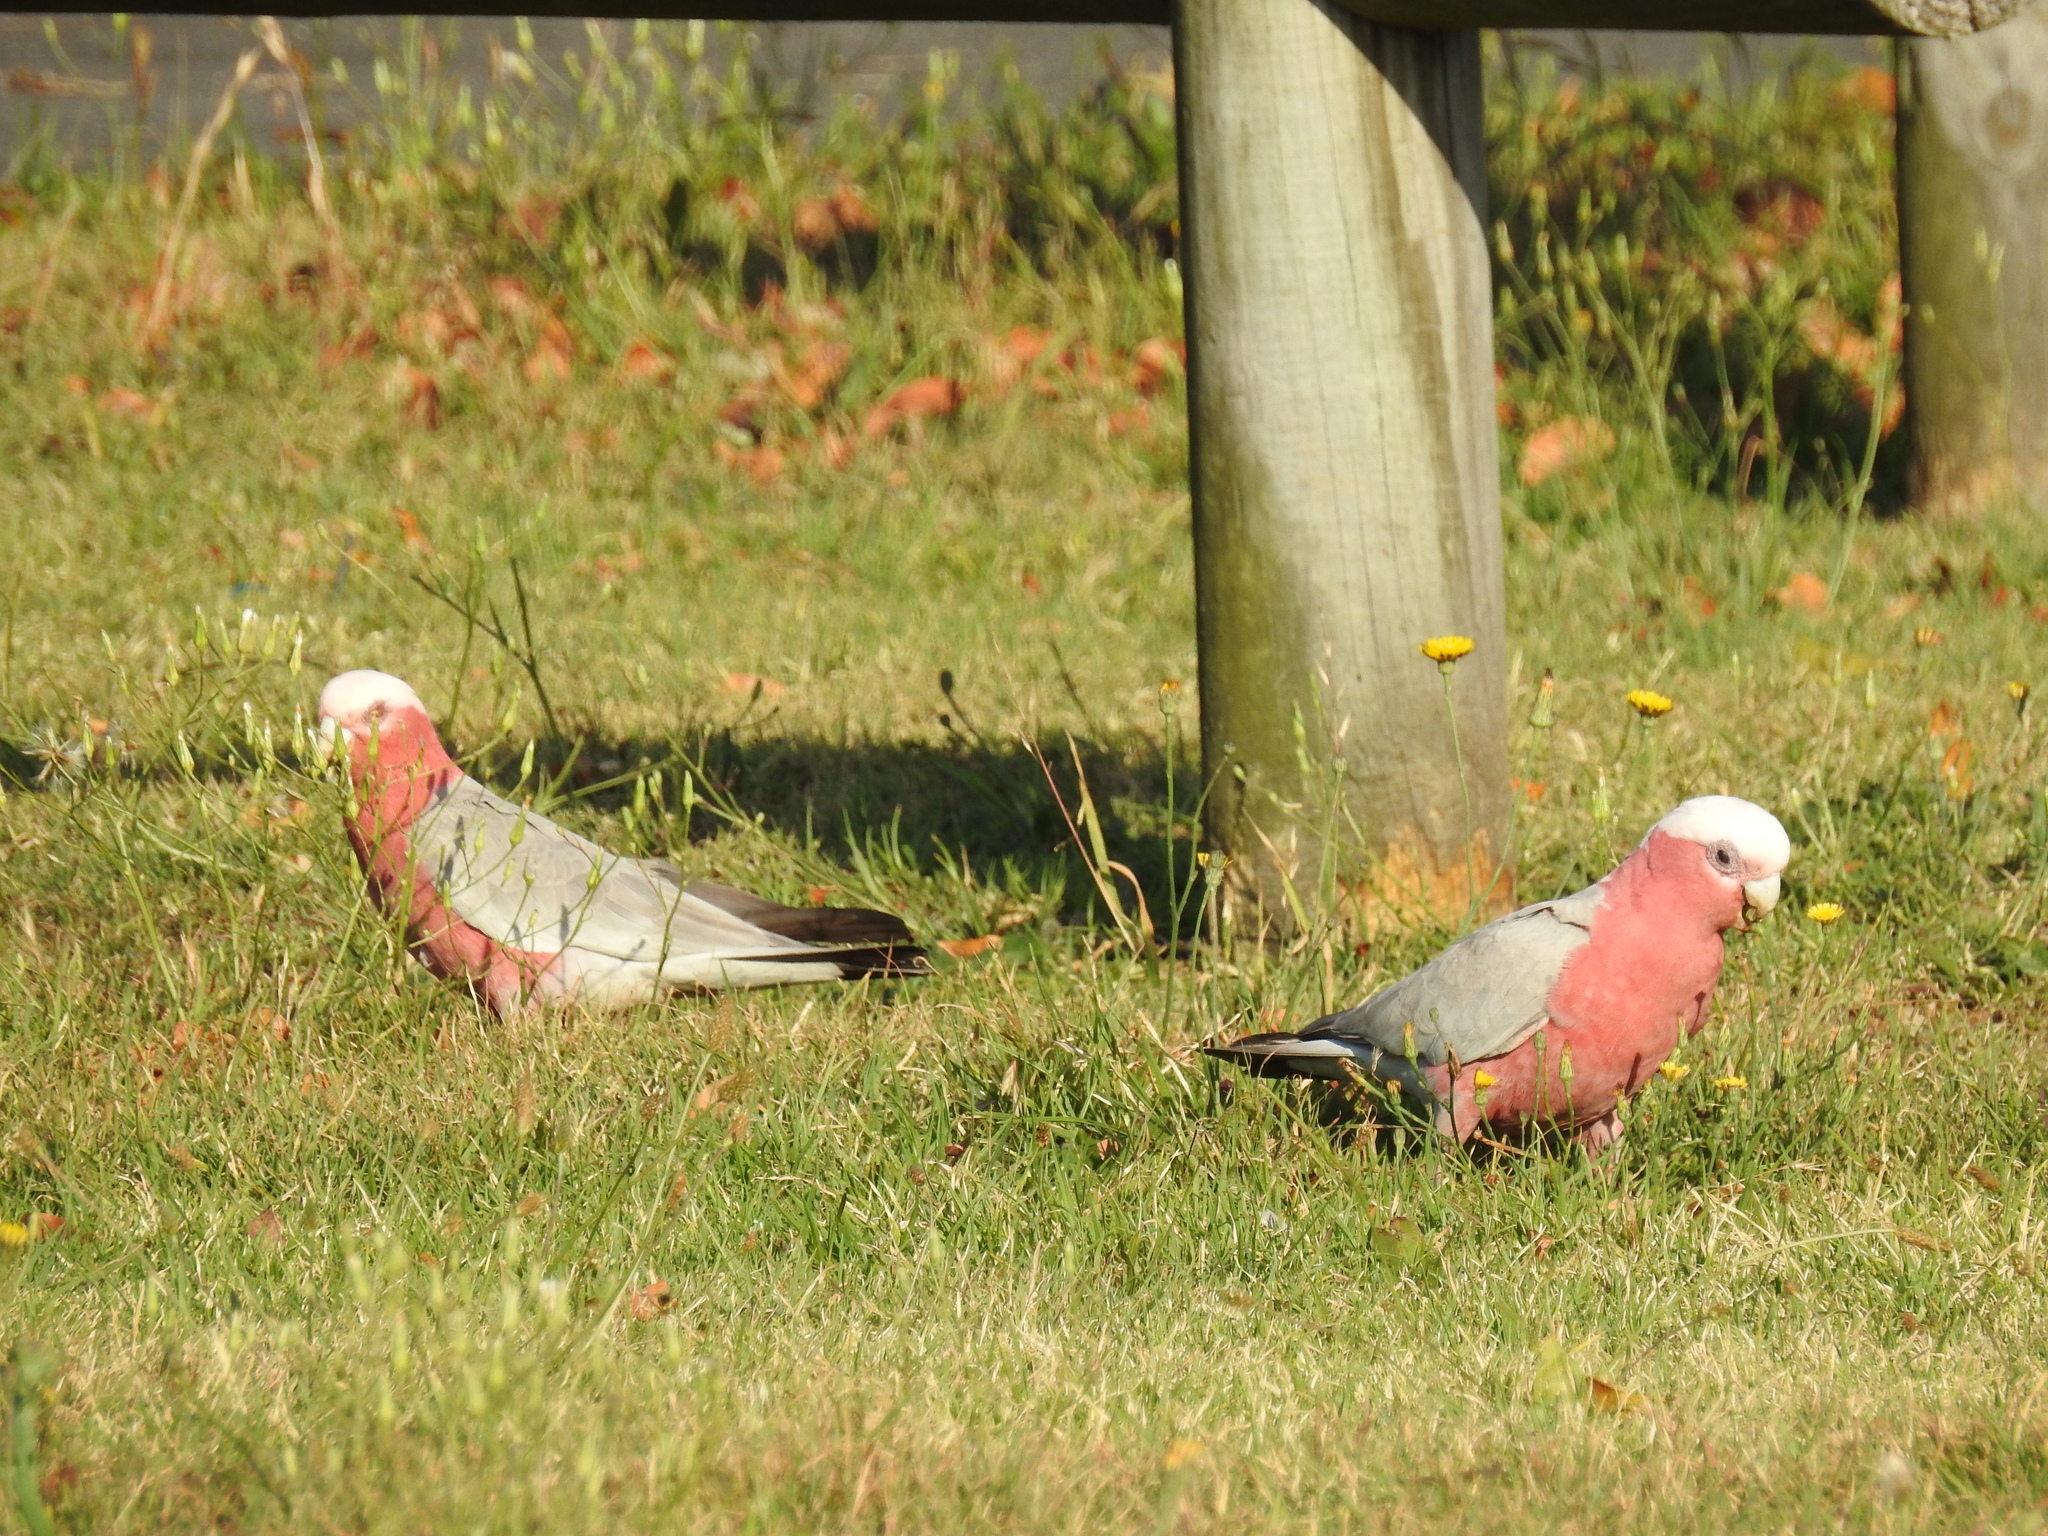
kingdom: Animalia
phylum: Chordata
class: Aves
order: Psittaciformes
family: Psittacidae
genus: Eolophus
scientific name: Eolophus roseicapilla
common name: Galah
